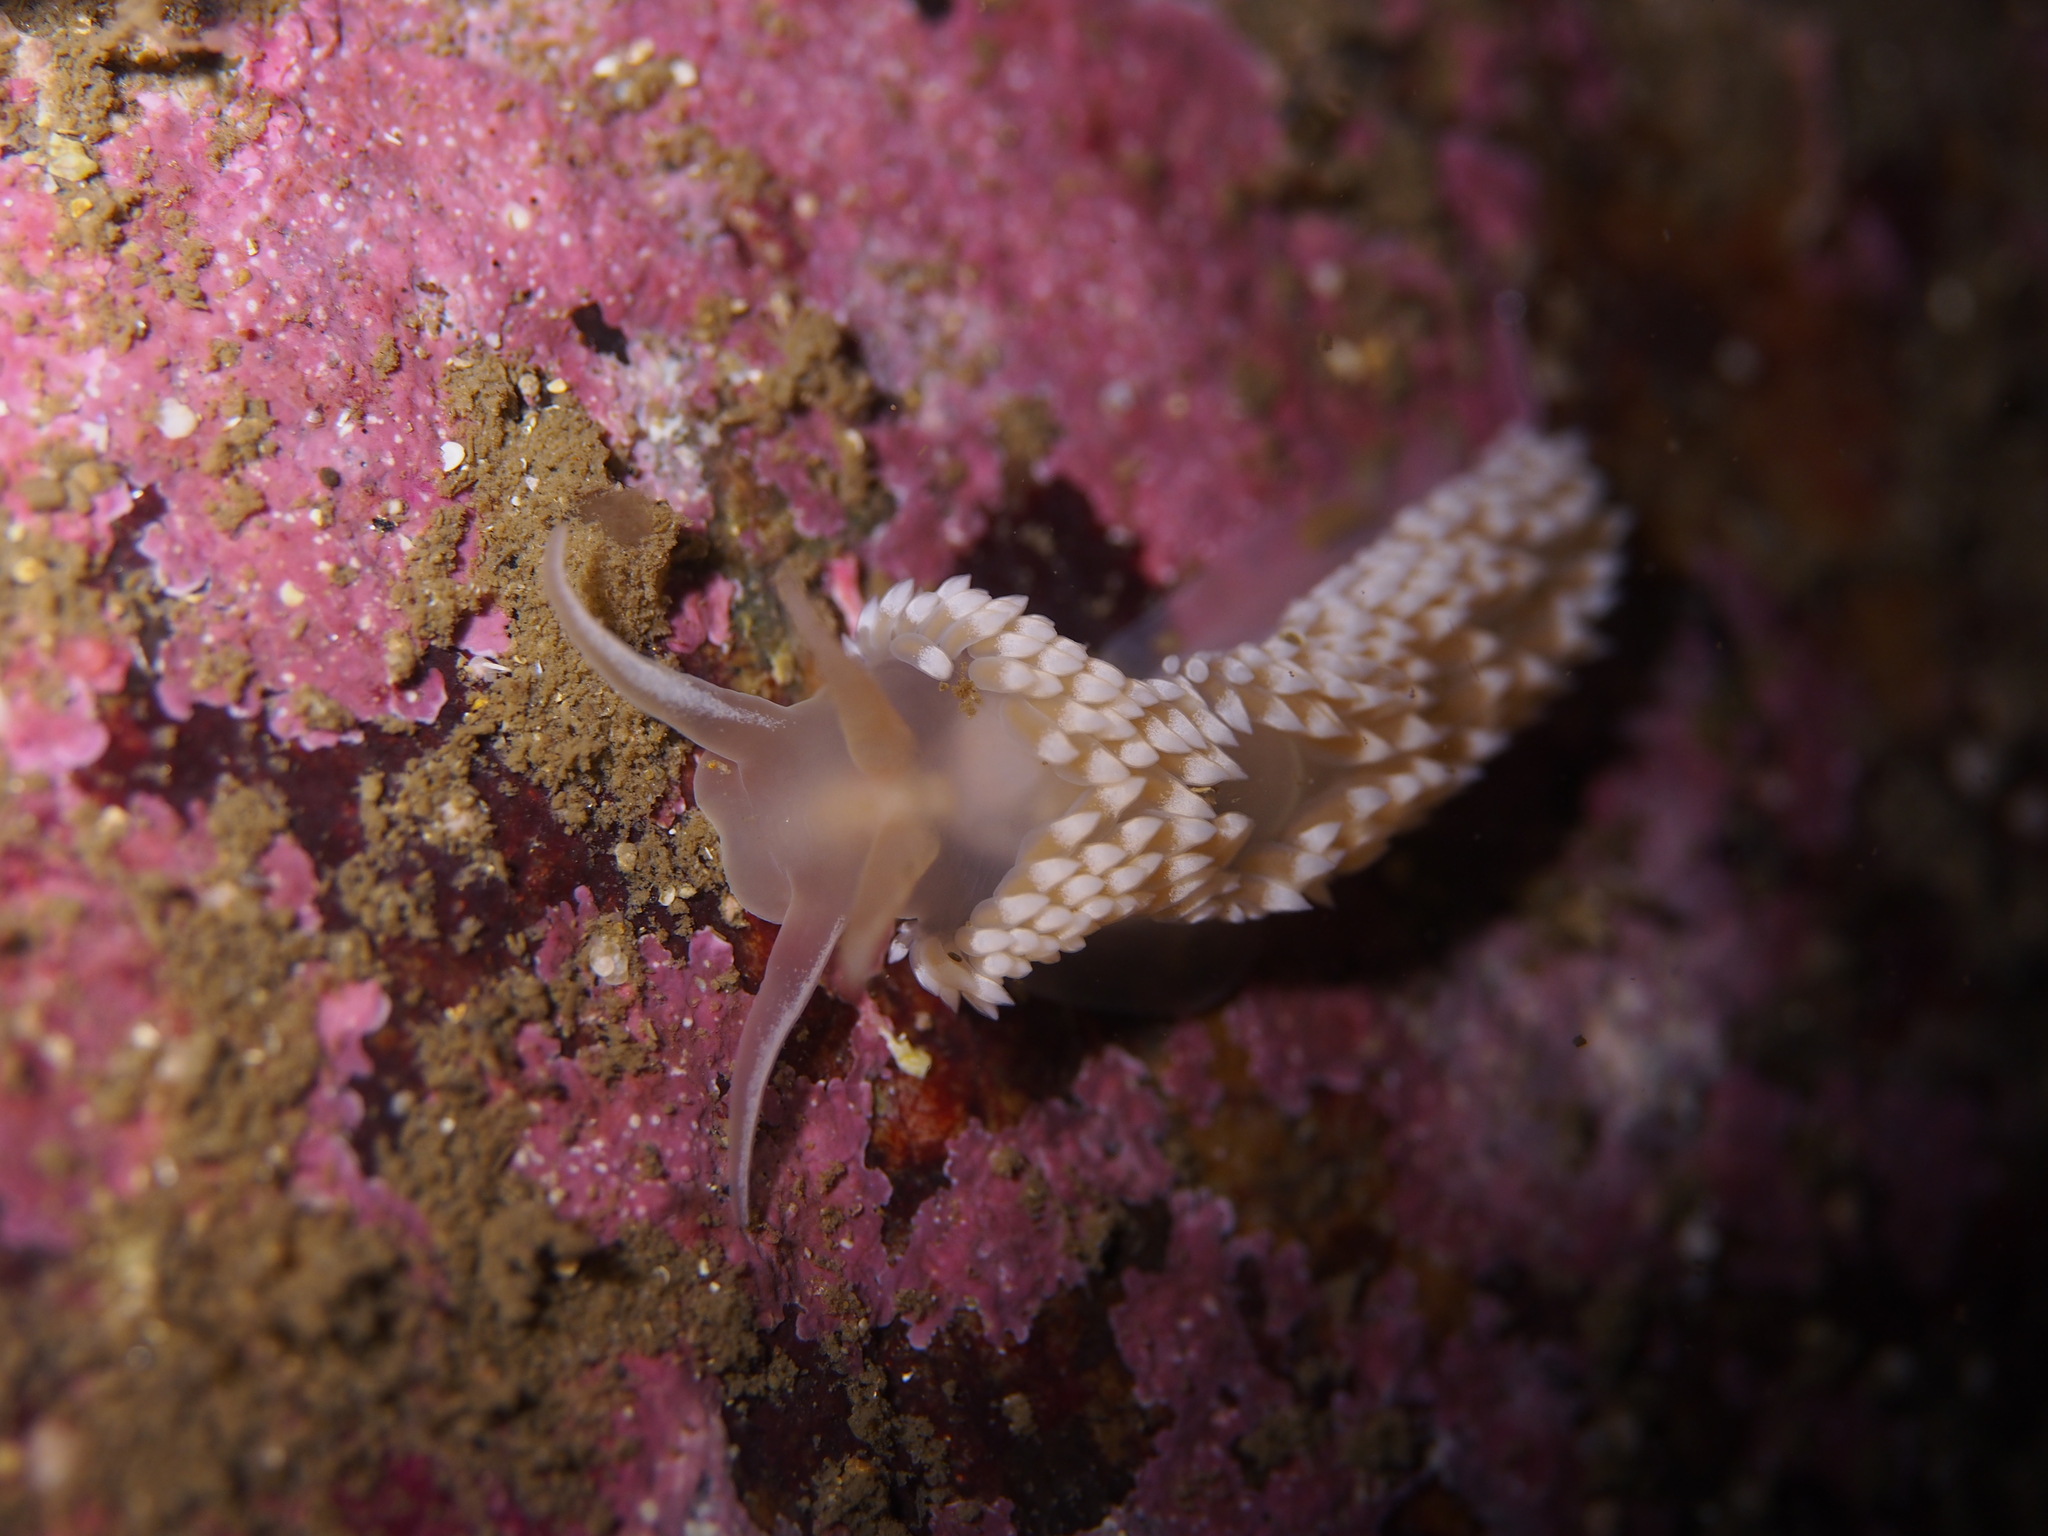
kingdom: Animalia
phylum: Mollusca
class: Gastropoda
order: Nudibranchia
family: Coryphellidae
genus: Coryphella
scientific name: Coryphella verrucosa
